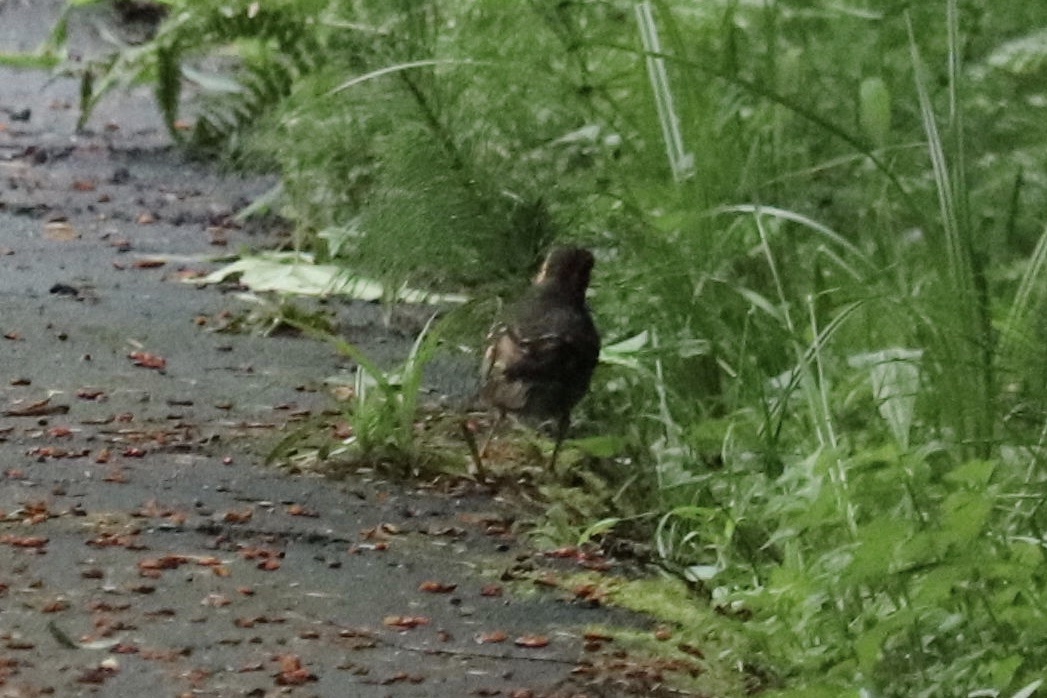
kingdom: Animalia
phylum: Chordata
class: Aves
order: Passeriformes
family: Turdidae
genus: Ixoreus
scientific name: Ixoreus naevius
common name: Varied thrush
